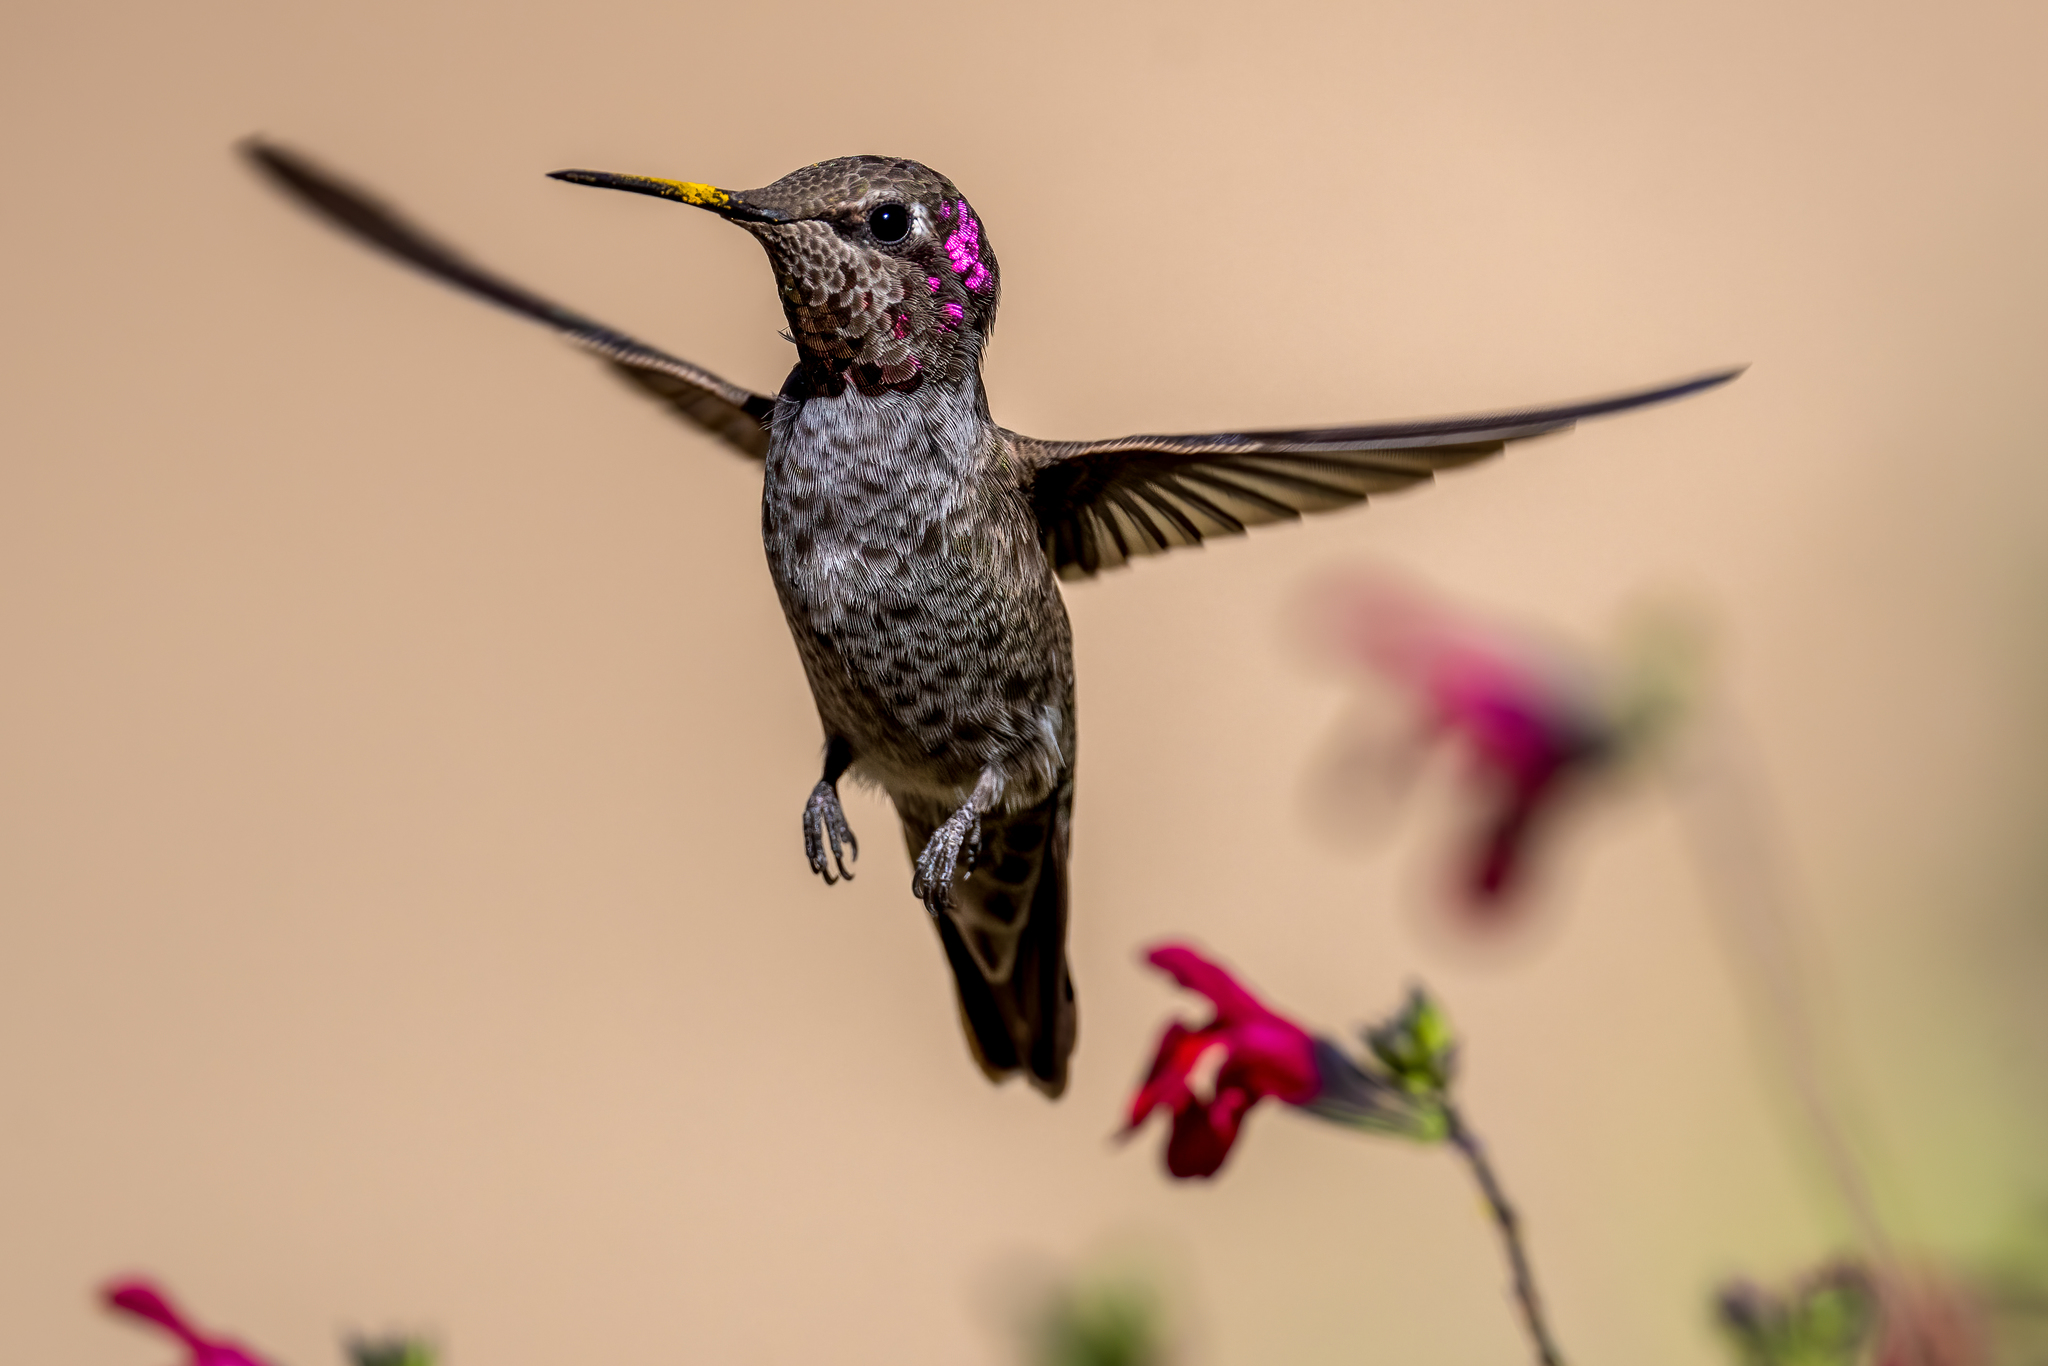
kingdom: Animalia
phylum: Chordata
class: Aves
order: Apodiformes
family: Trochilidae
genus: Calypte
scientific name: Calypte anna
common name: Anna's hummingbird
